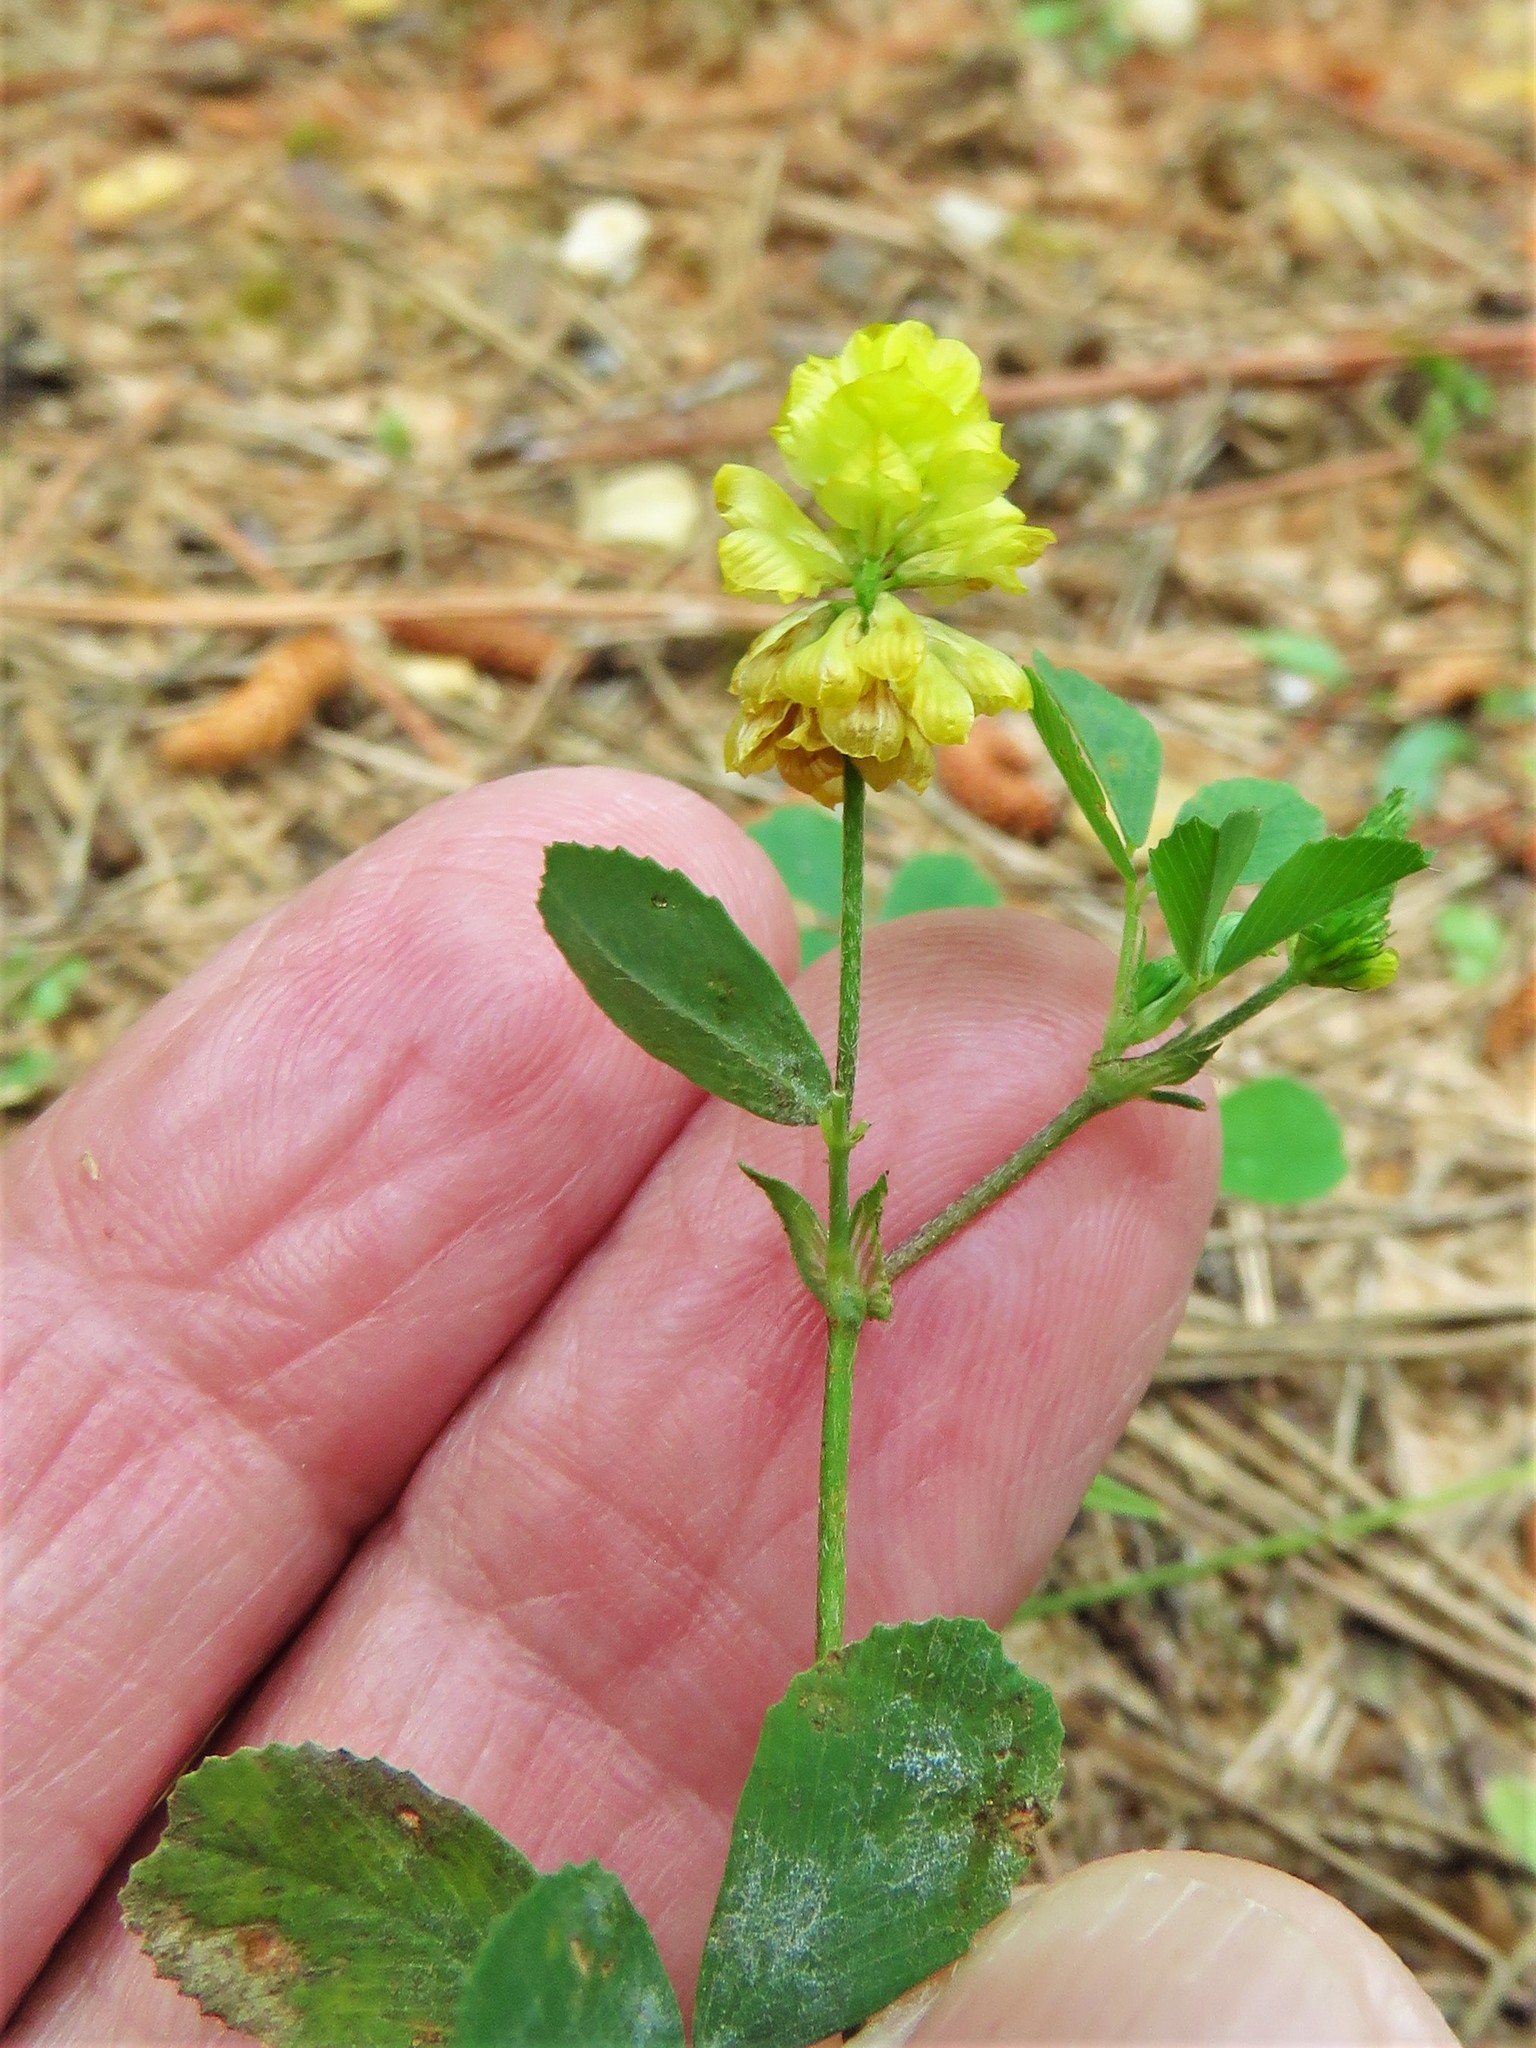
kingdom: Plantae
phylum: Tracheophyta
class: Magnoliopsida
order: Fabales
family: Fabaceae
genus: Trifolium
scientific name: Trifolium campestre
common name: Field clover
